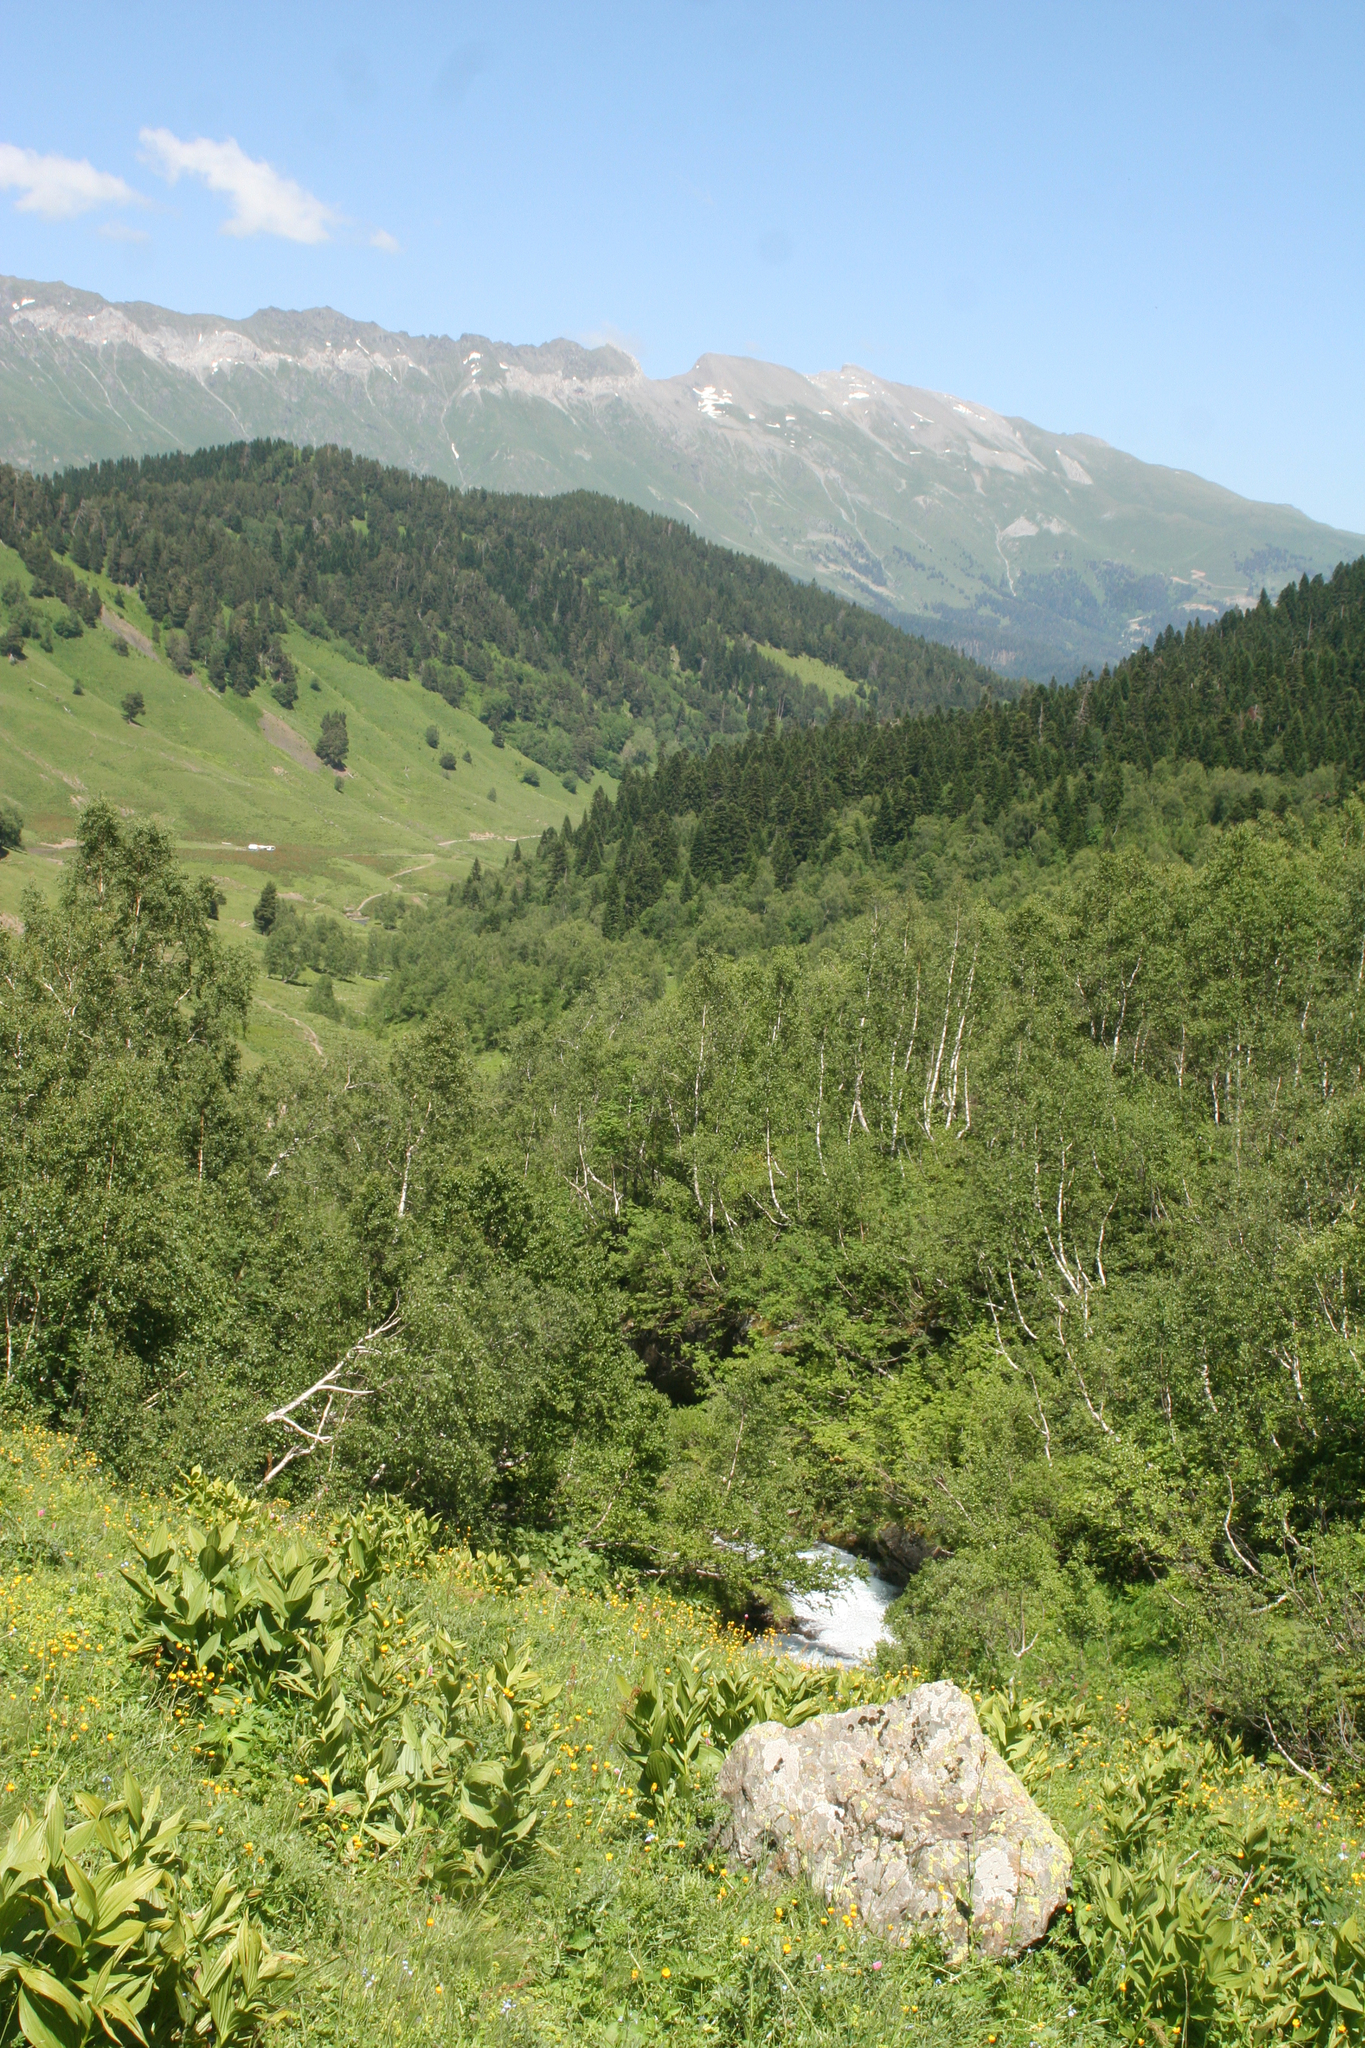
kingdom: Plantae
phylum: Tracheophyta
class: Liliopsida
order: Liliales
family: Melanthiaceae
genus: Veratrum
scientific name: Veratrum lobelianum
